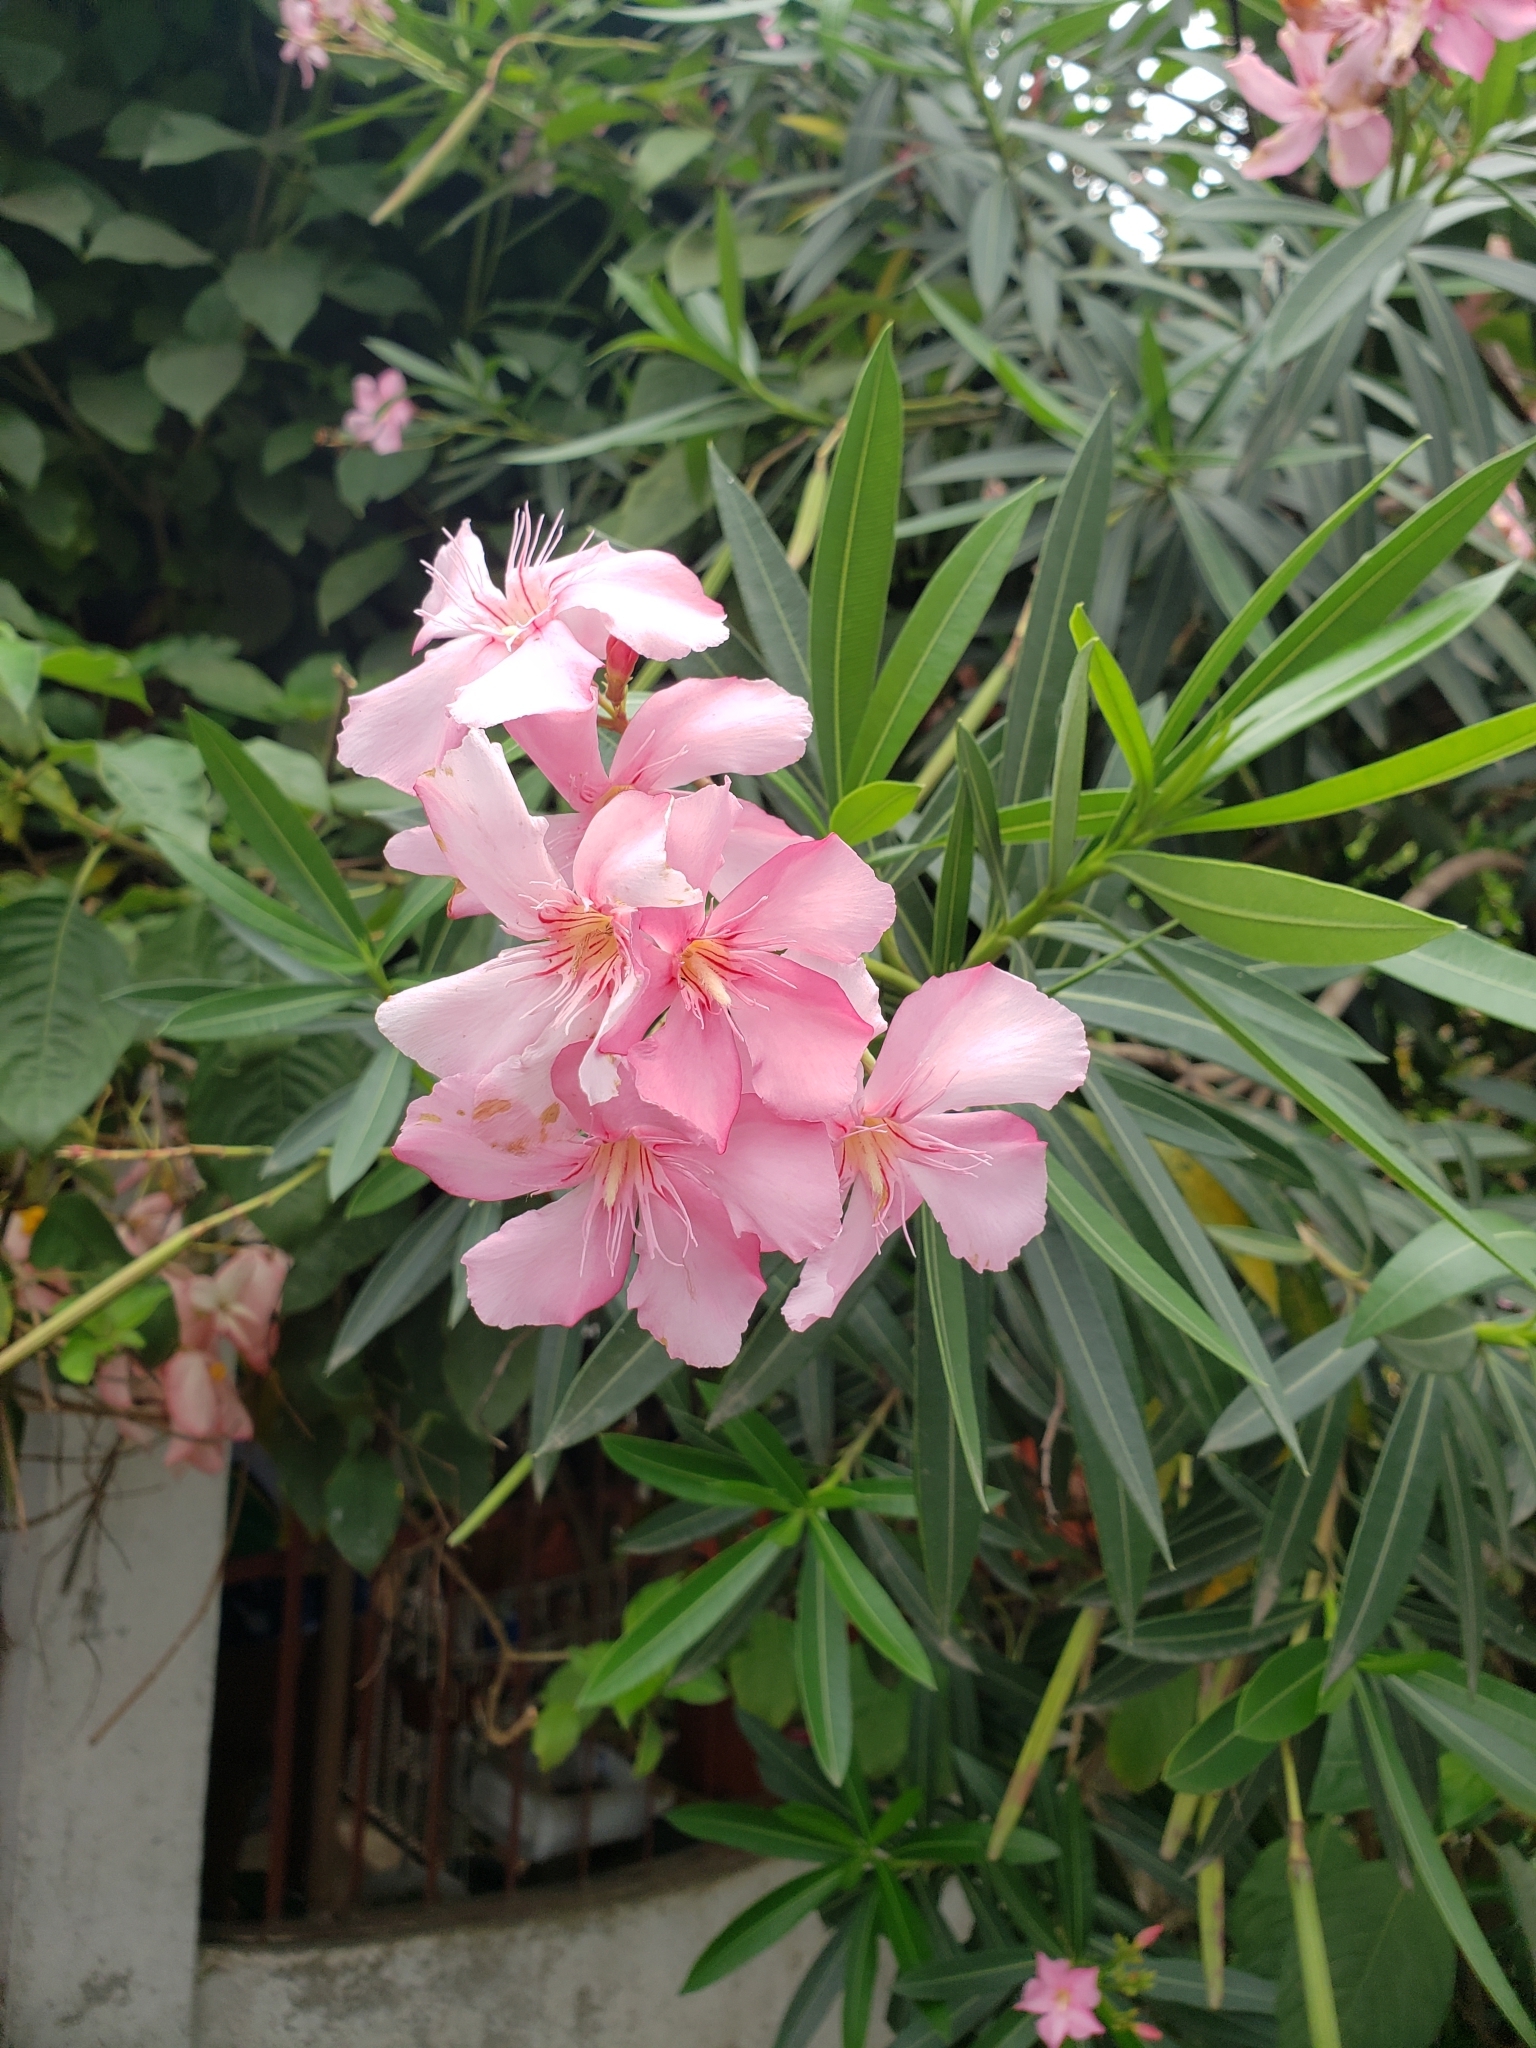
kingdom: Plantae
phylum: Tracheophyta
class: Magnoliopsida
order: Gentianales
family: Apocynaceae
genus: Nerium
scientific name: Nerium oleander
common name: Oleander
